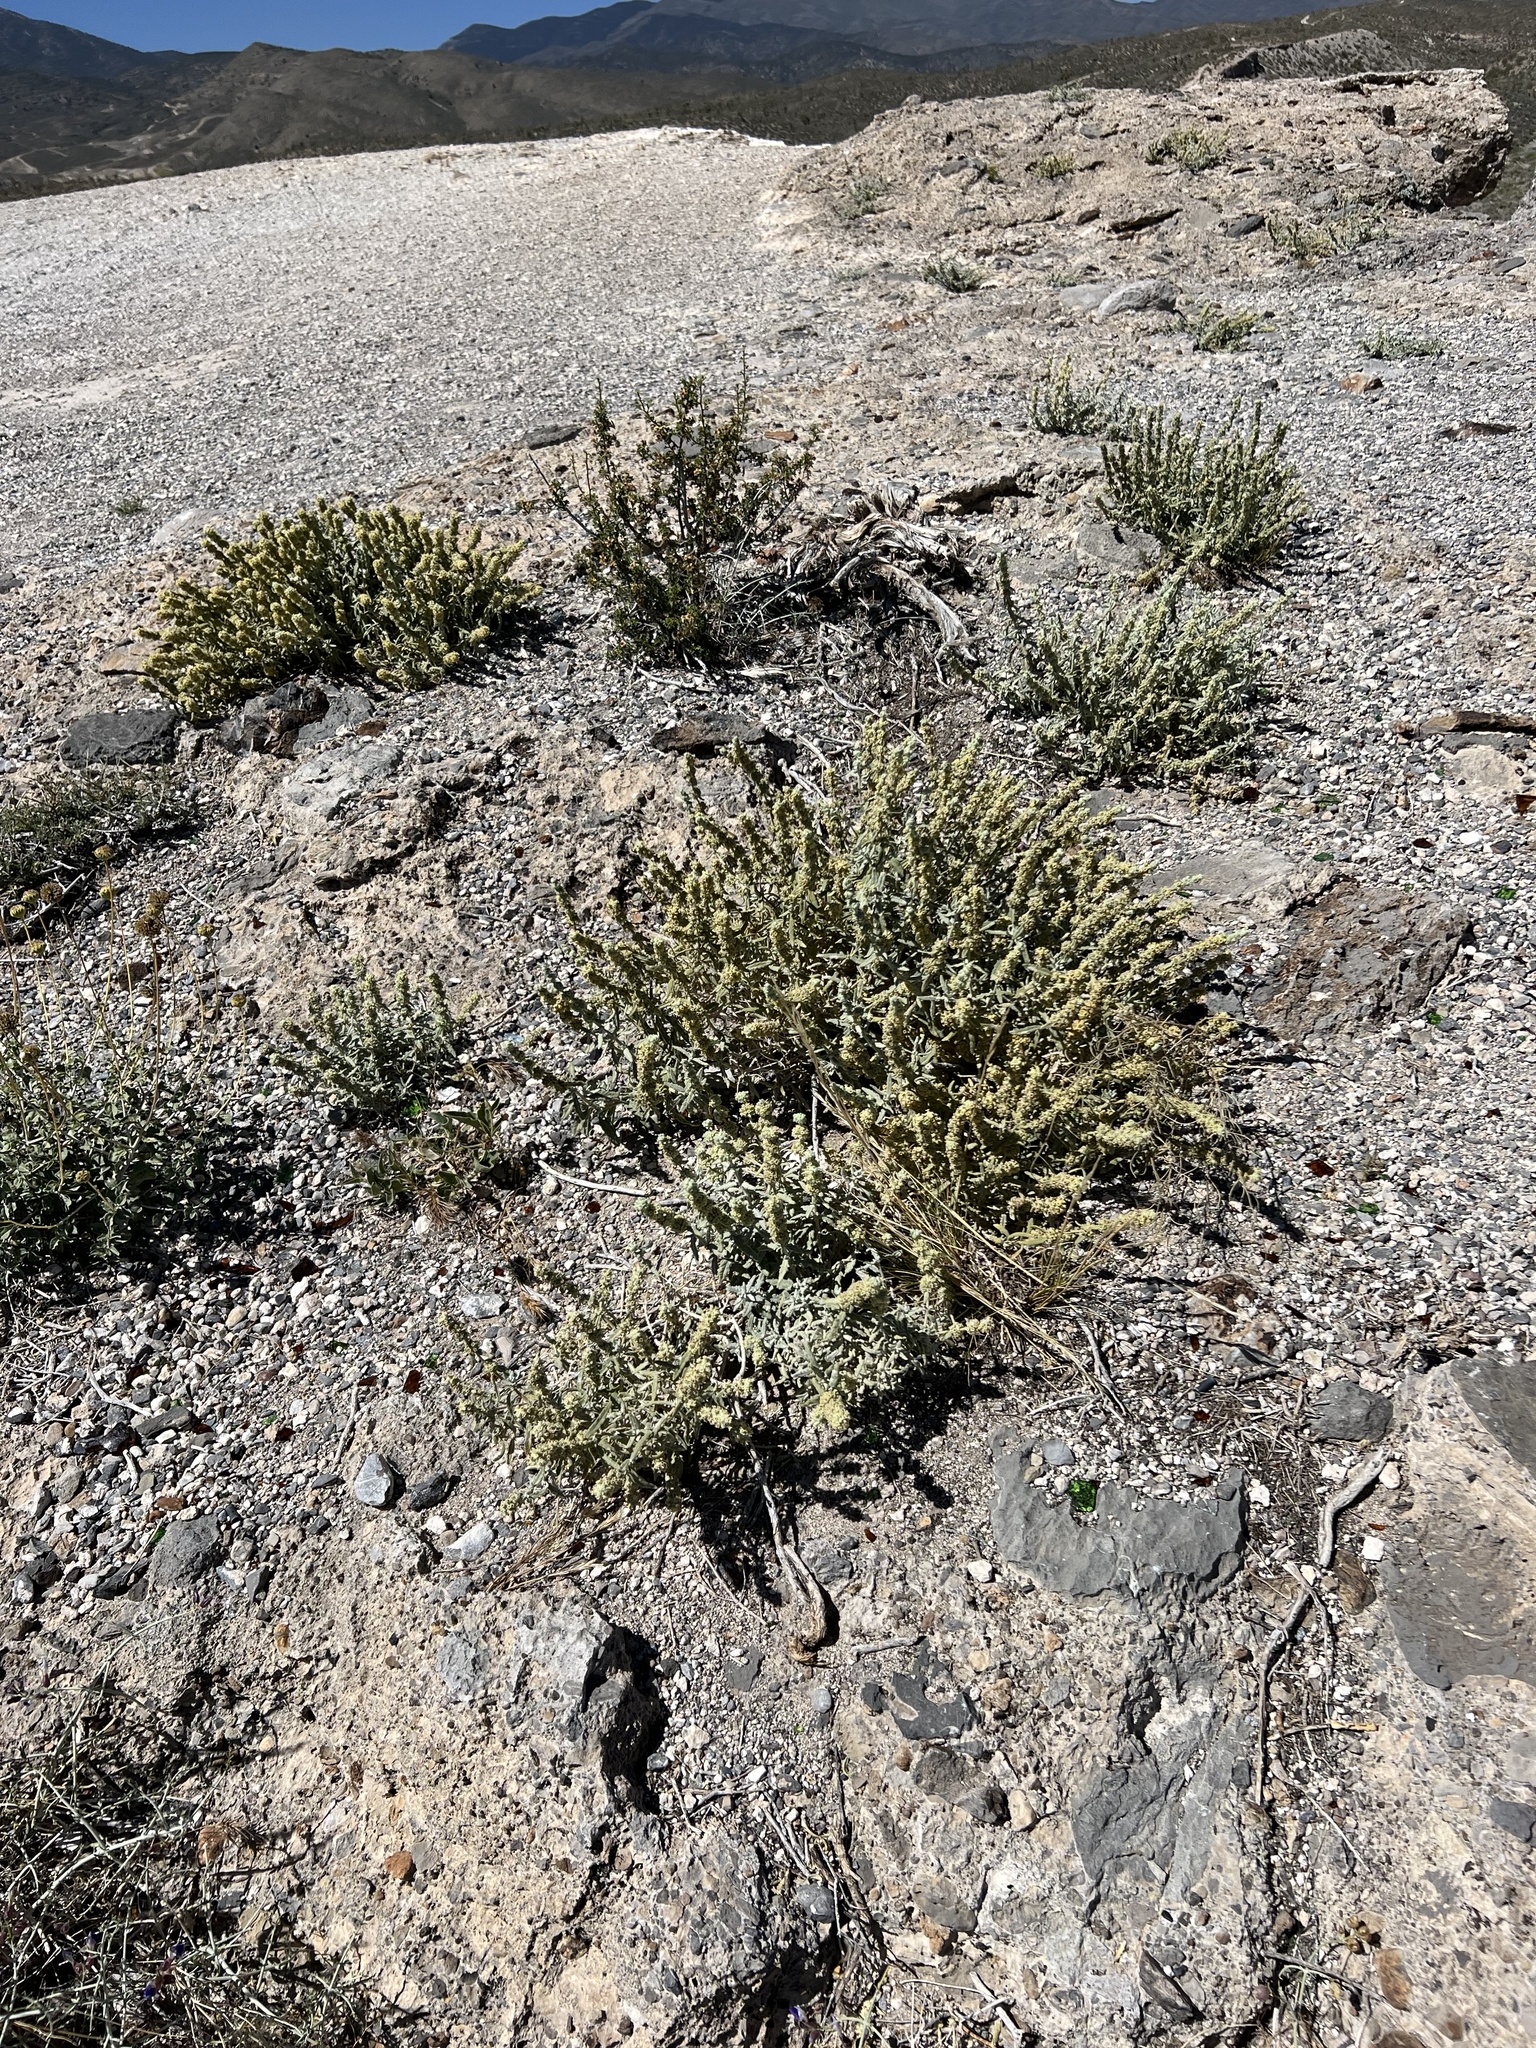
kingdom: Plantae
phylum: Tracheophyta
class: Magnoliopsida
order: Lamiales
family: Scrophulariaceae
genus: Buddleja
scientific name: Buddleja utahensis
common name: Utah butterfly-bush
